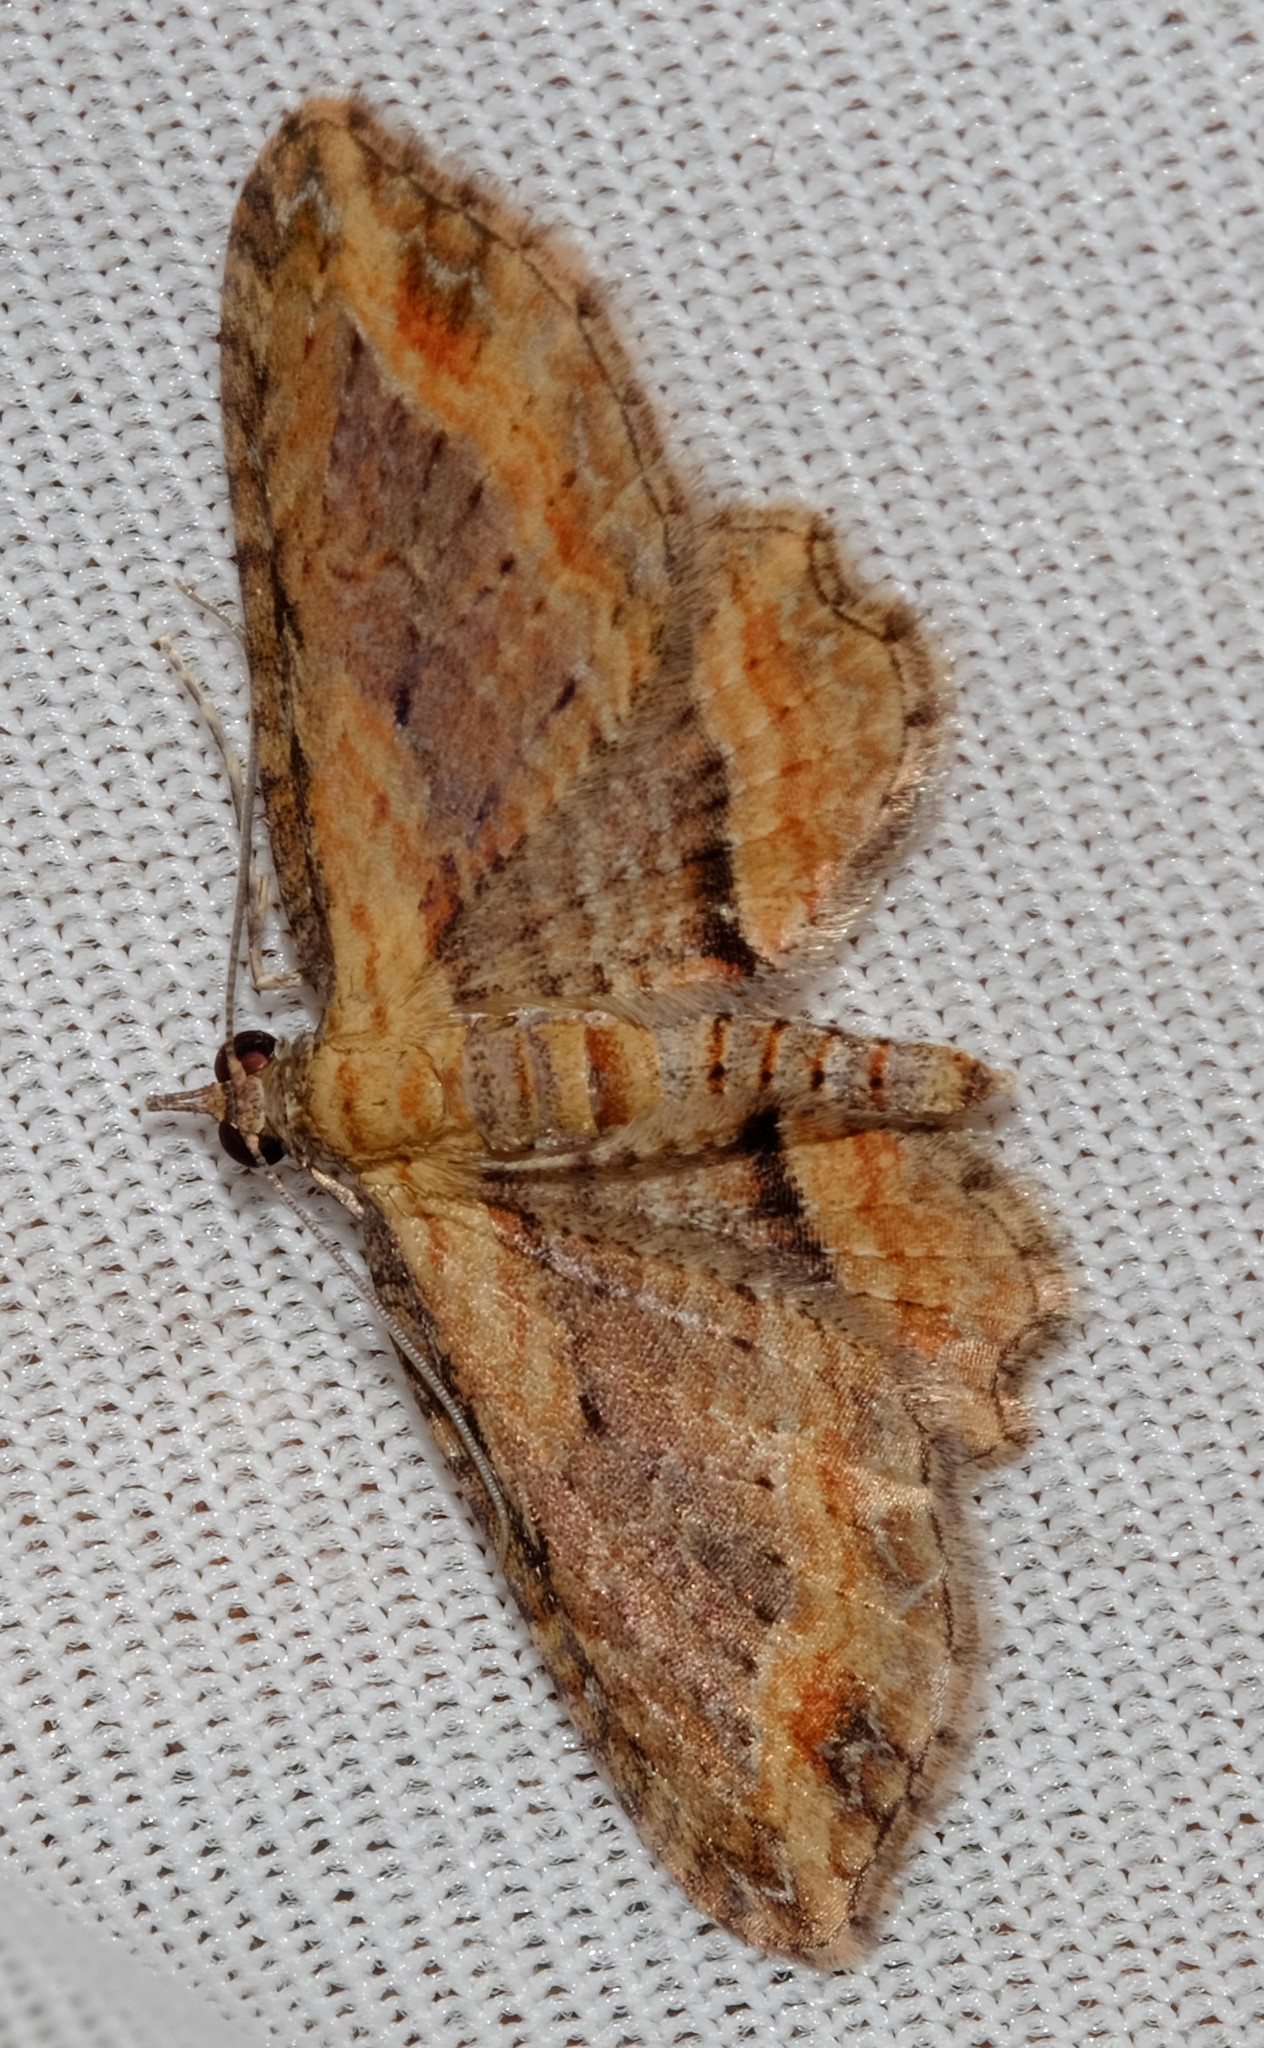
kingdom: Animalia
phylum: Arthropoda
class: Insecta
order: Lepidoptera
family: Geometridae
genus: Chloroclystis
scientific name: Chloroclystis filata
